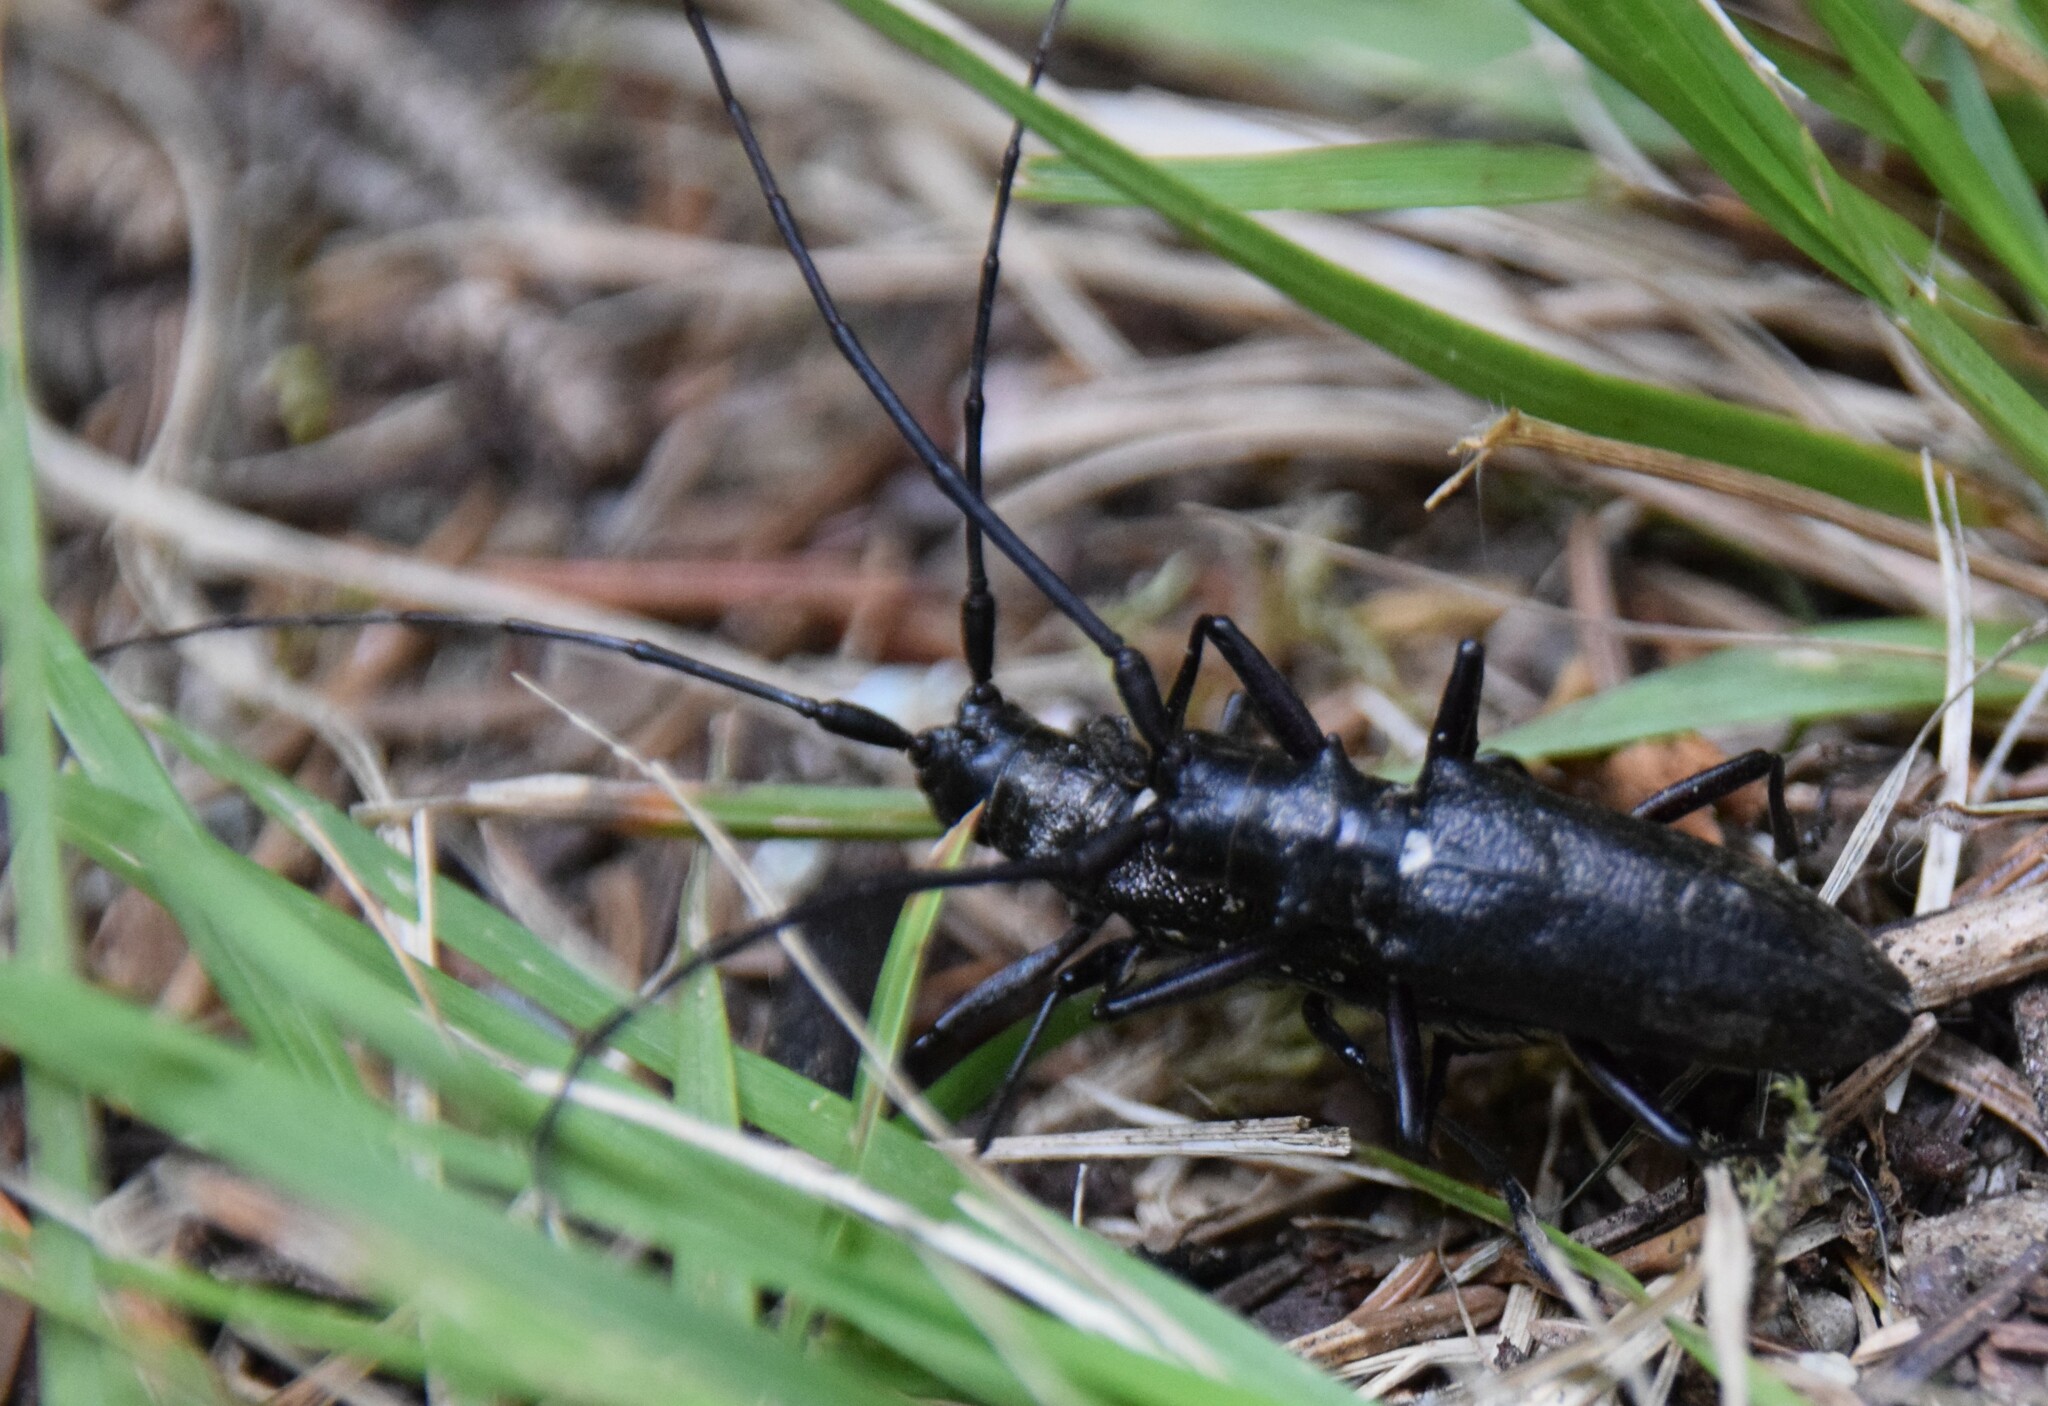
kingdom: Animalia
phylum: Arthropoda
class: Insecta
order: Coleoptera
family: Cerambycidae
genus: Monochamus
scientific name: Monochamus scutellatus
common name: White-spotted sawyer beetle
